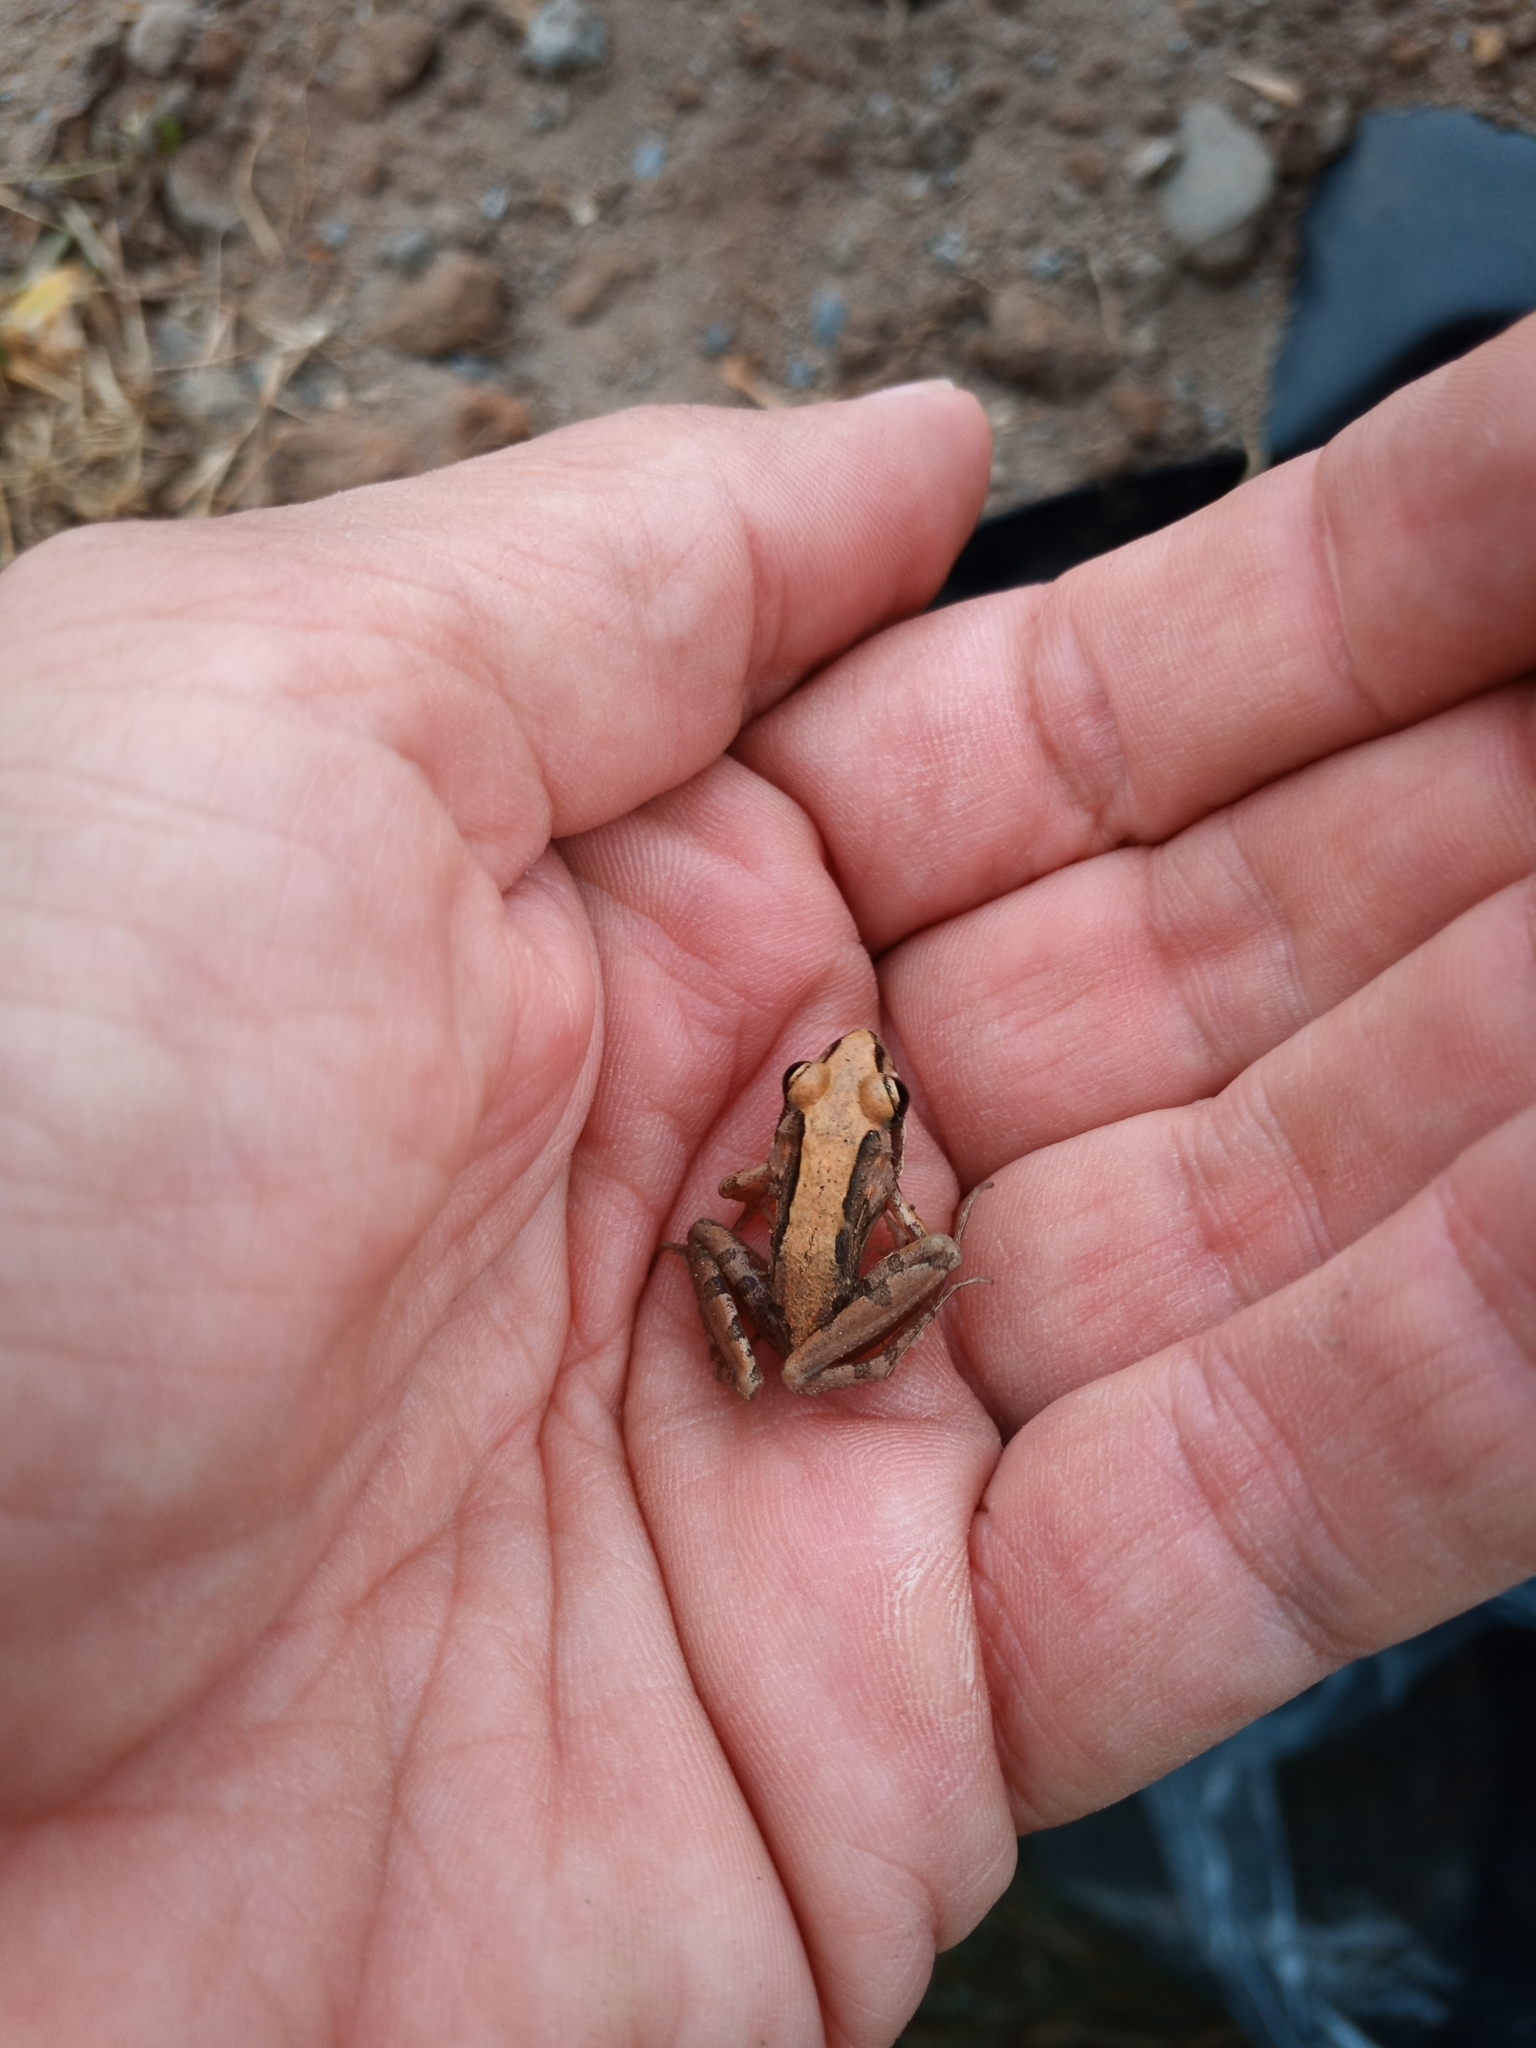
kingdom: Animalia
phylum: Chordata
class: Amphibia
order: Anura
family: Pyxicephalidae
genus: Strongylopus
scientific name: Strongylopus grayii
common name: Gray's stream frog
